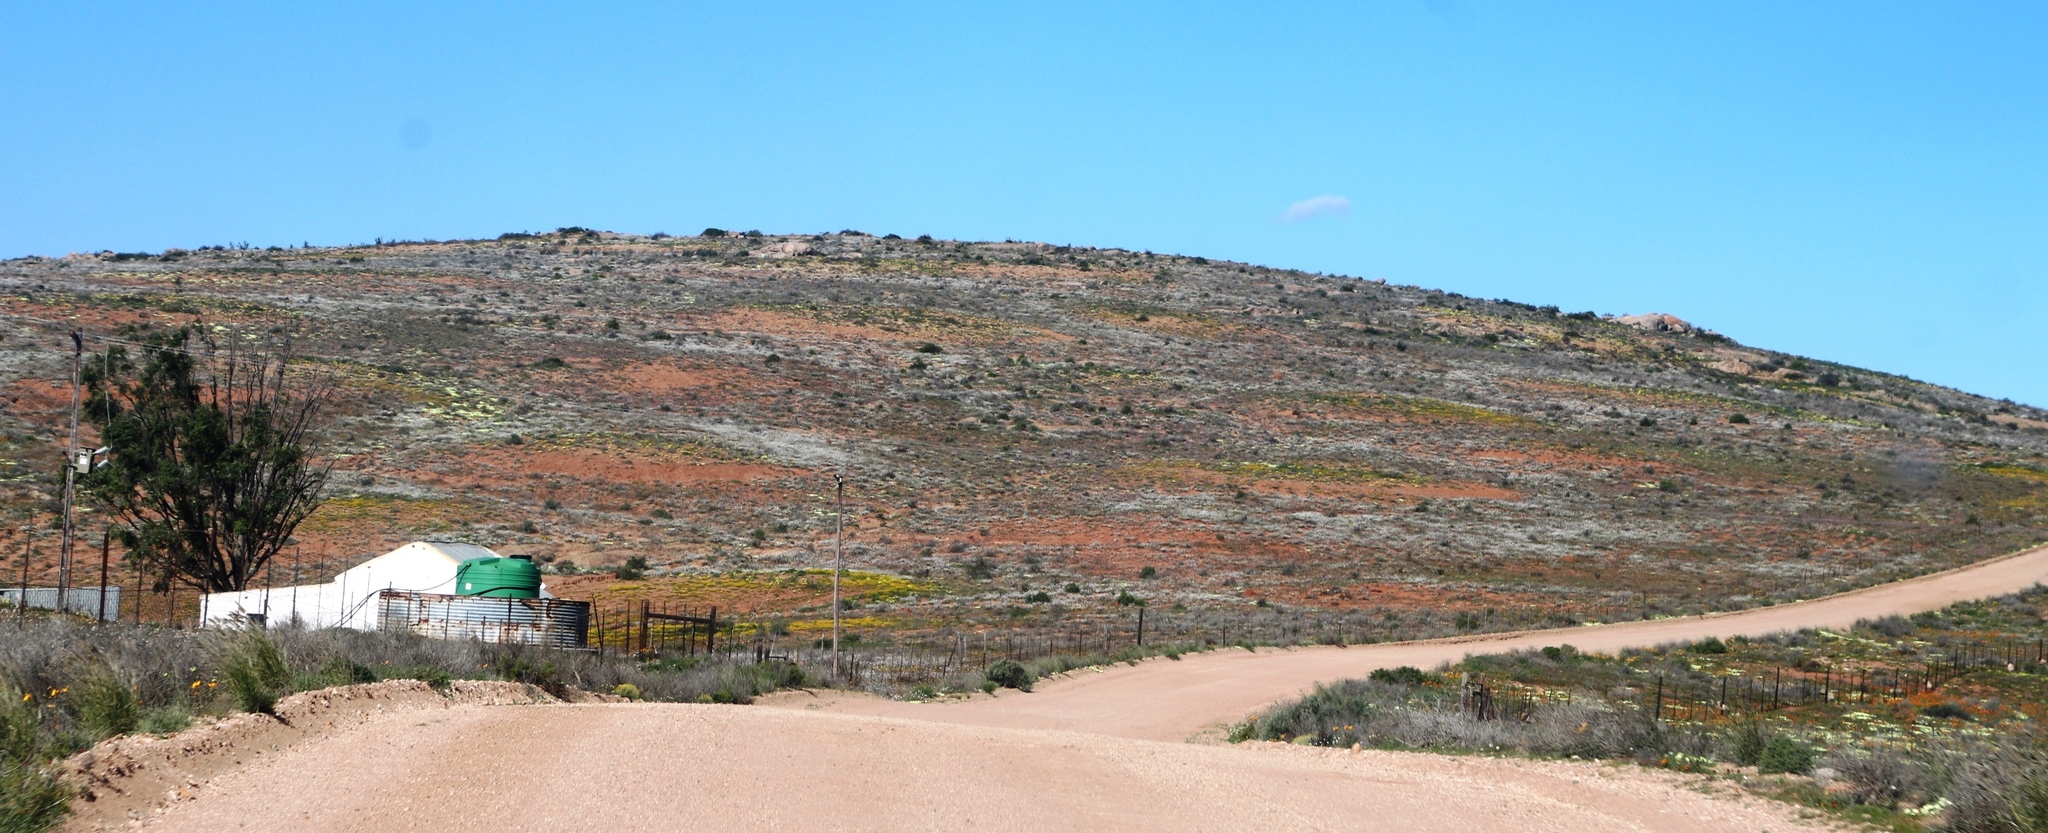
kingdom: Animalia
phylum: Arthropoda
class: Insecta
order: Blattodea
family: Hodotermitidae
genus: Microhodotermes
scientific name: Microhodotermes viator
